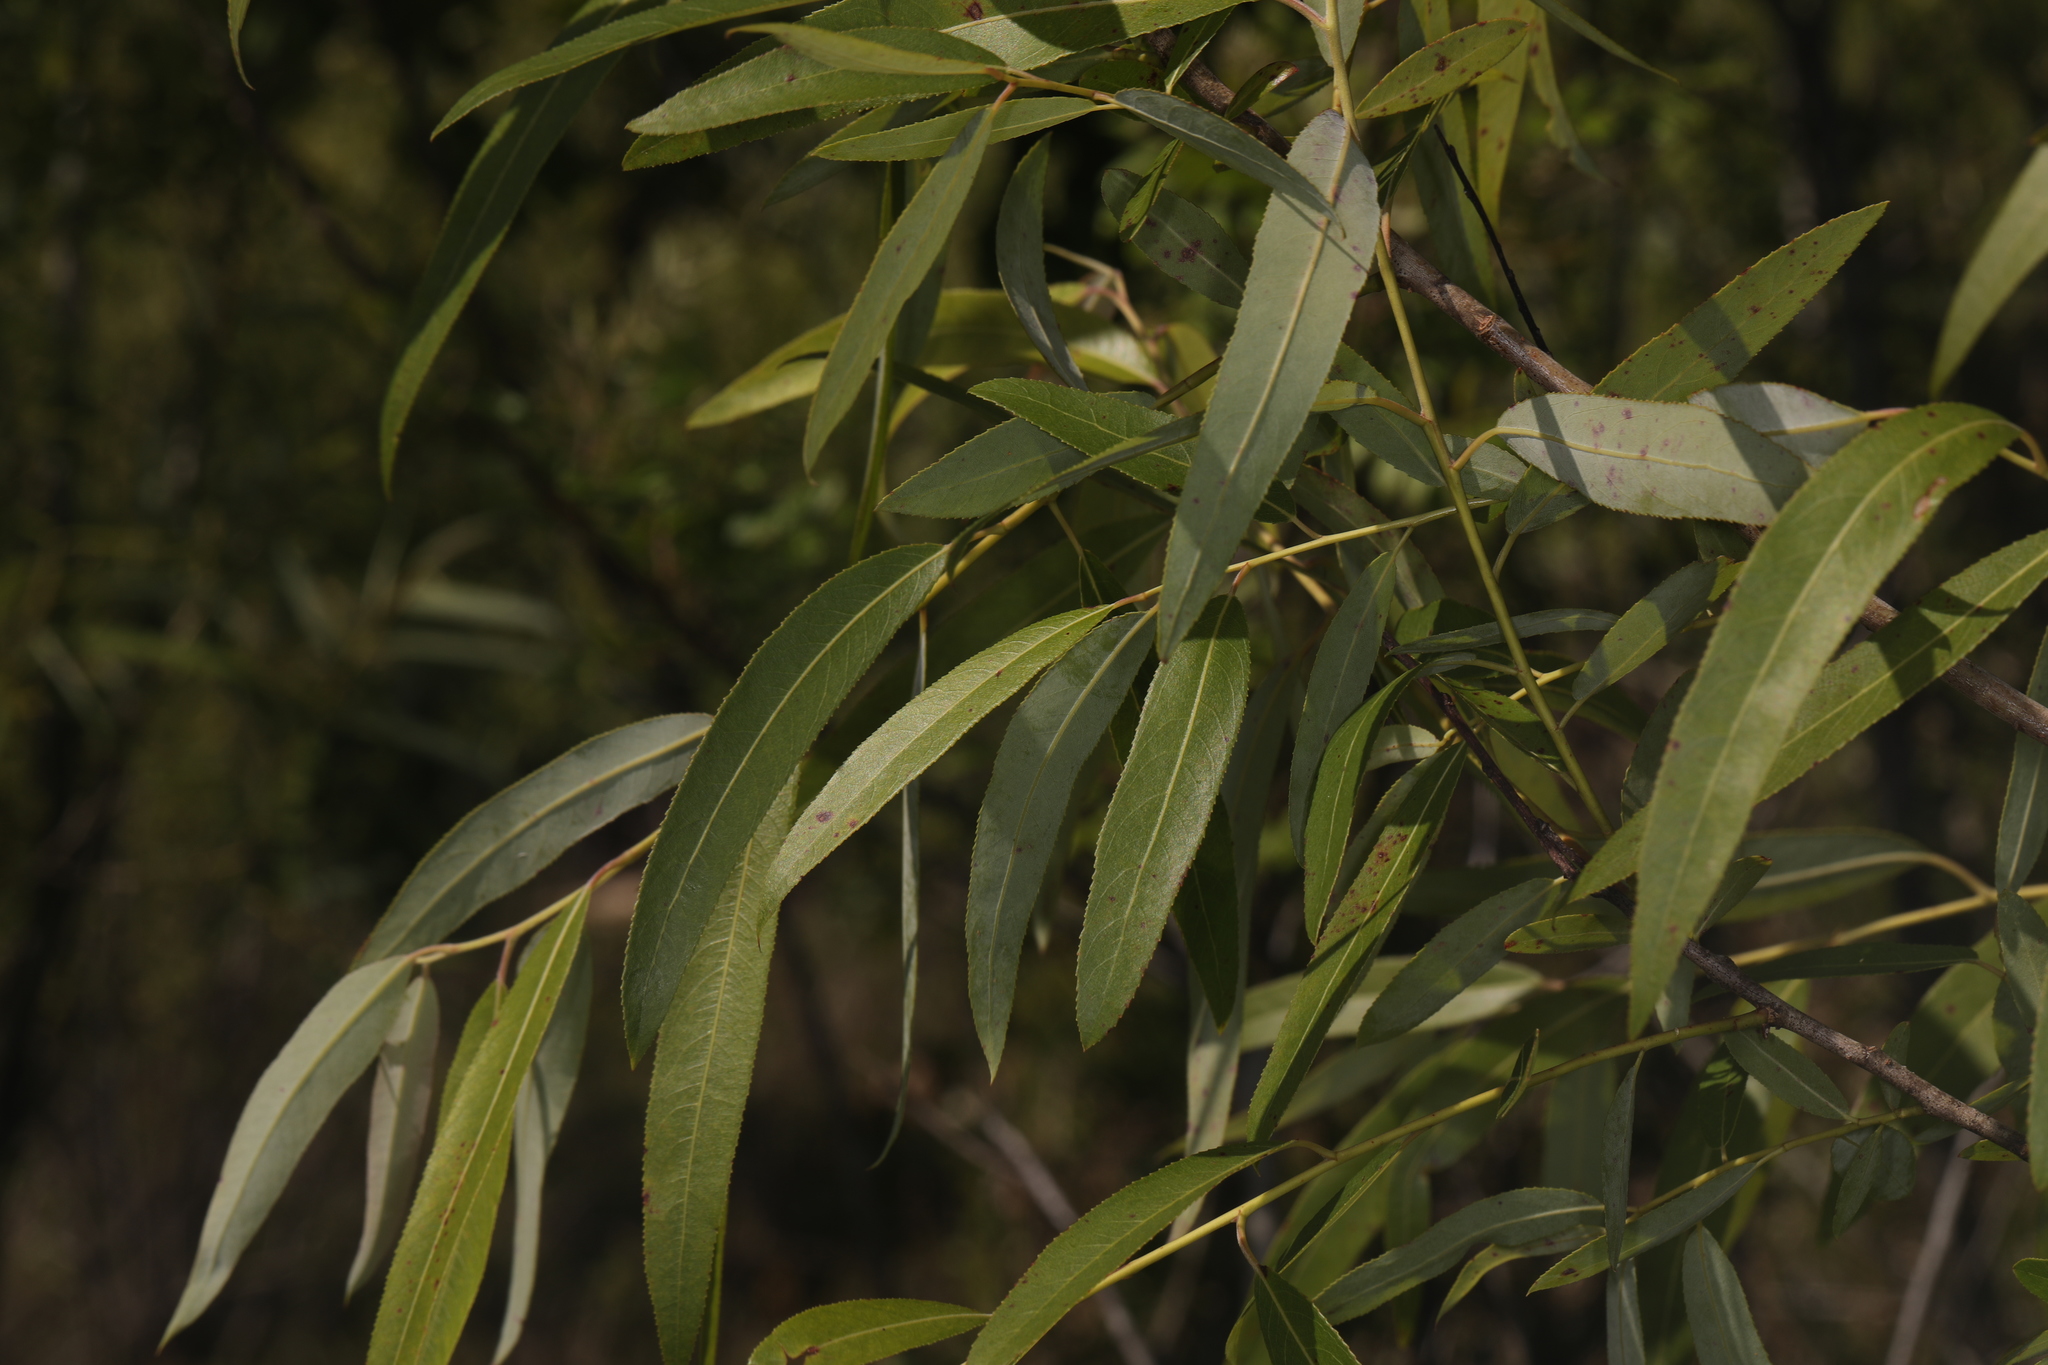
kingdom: Plantae
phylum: Tracheophyta
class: Magnoliopsida
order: Malpighiales
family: Salicaceae
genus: Salix
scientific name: Salix caroliniana
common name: Carolina willow
